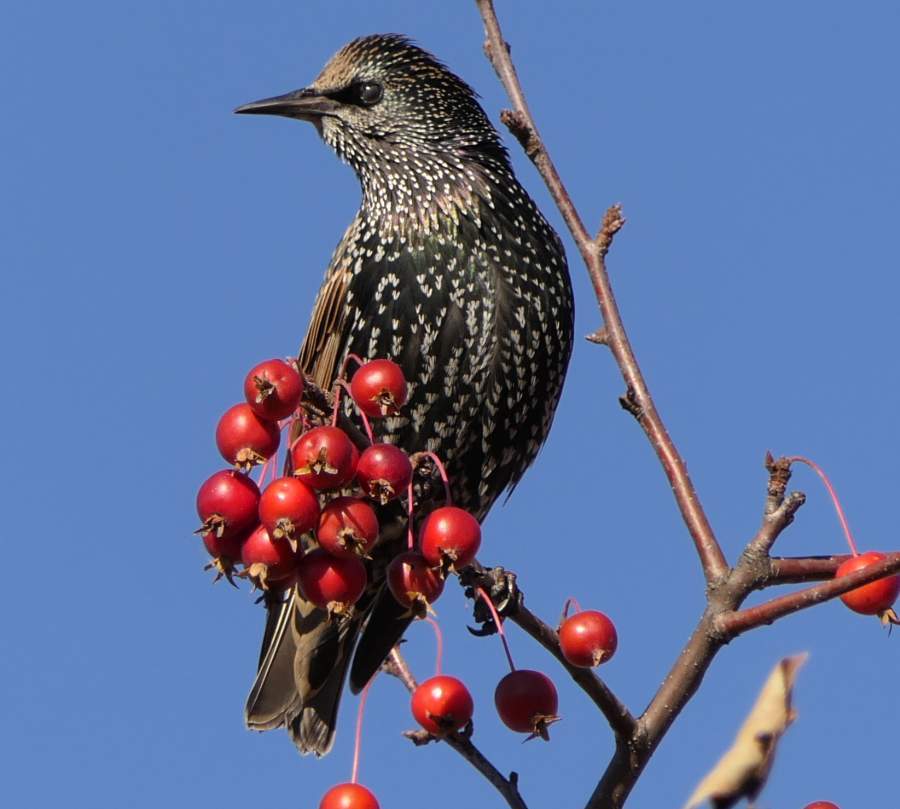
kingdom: Animalia
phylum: Chordata
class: Aves
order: Passeriformes
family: Sturnidae
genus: Sturnus
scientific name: Sturnus vulgaris
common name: Common starling
